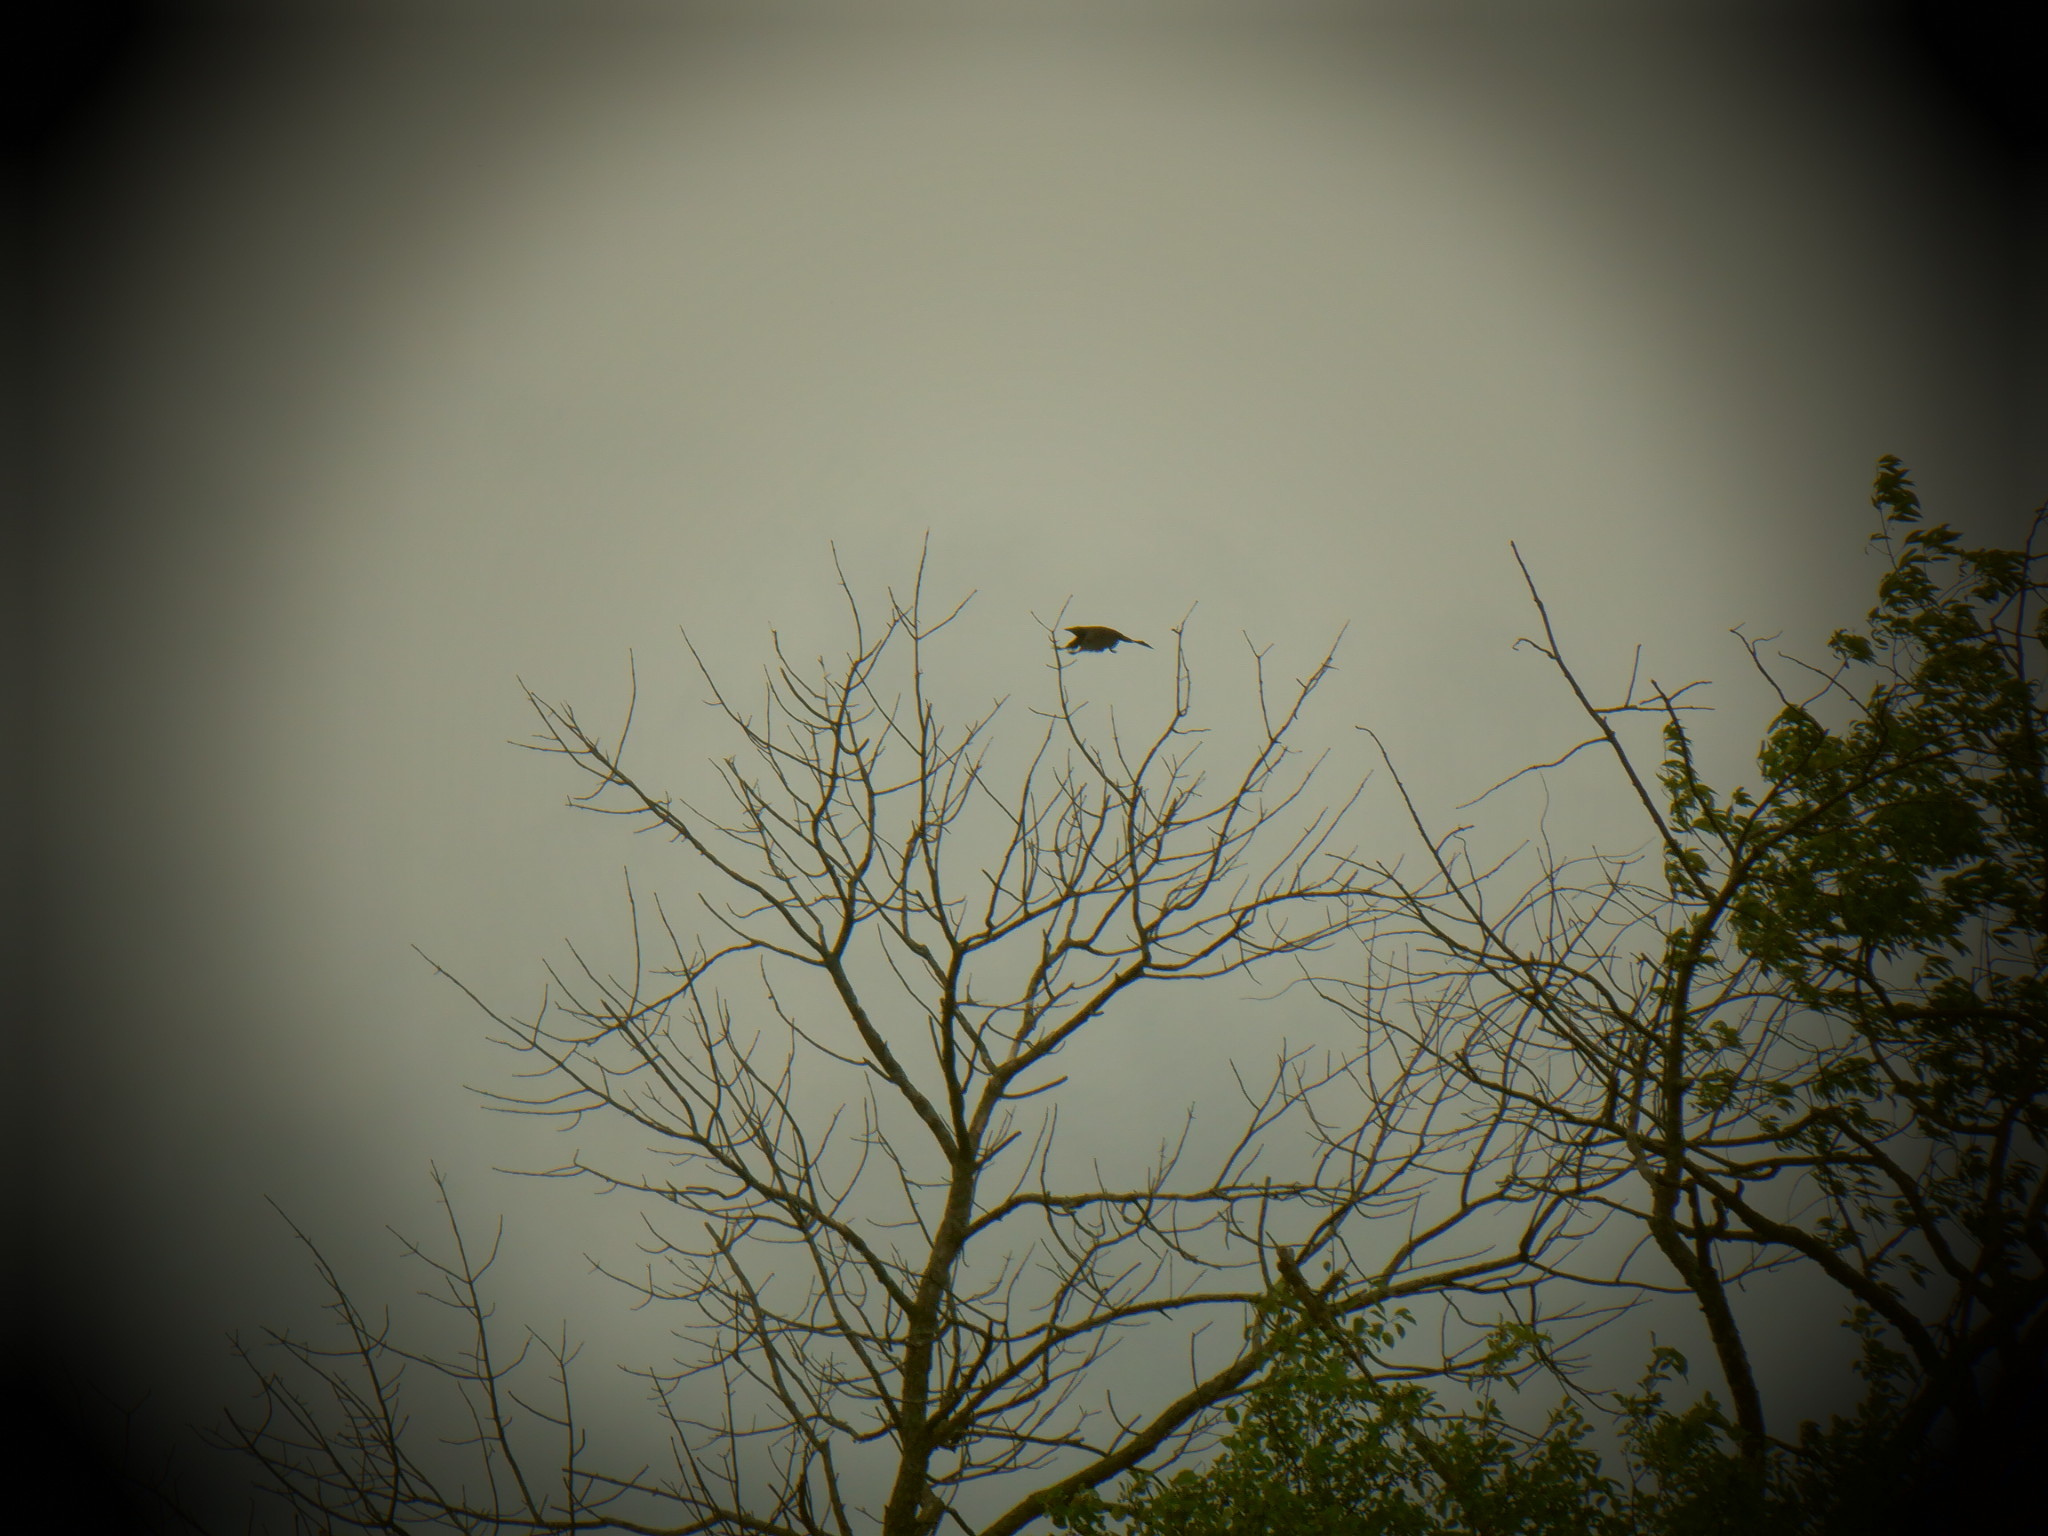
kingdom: Animalia
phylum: Chordata
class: Aves
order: Passeriformes
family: Icteridae
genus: Quiscalus
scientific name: Quiscalus quiscula
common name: Common grackle
